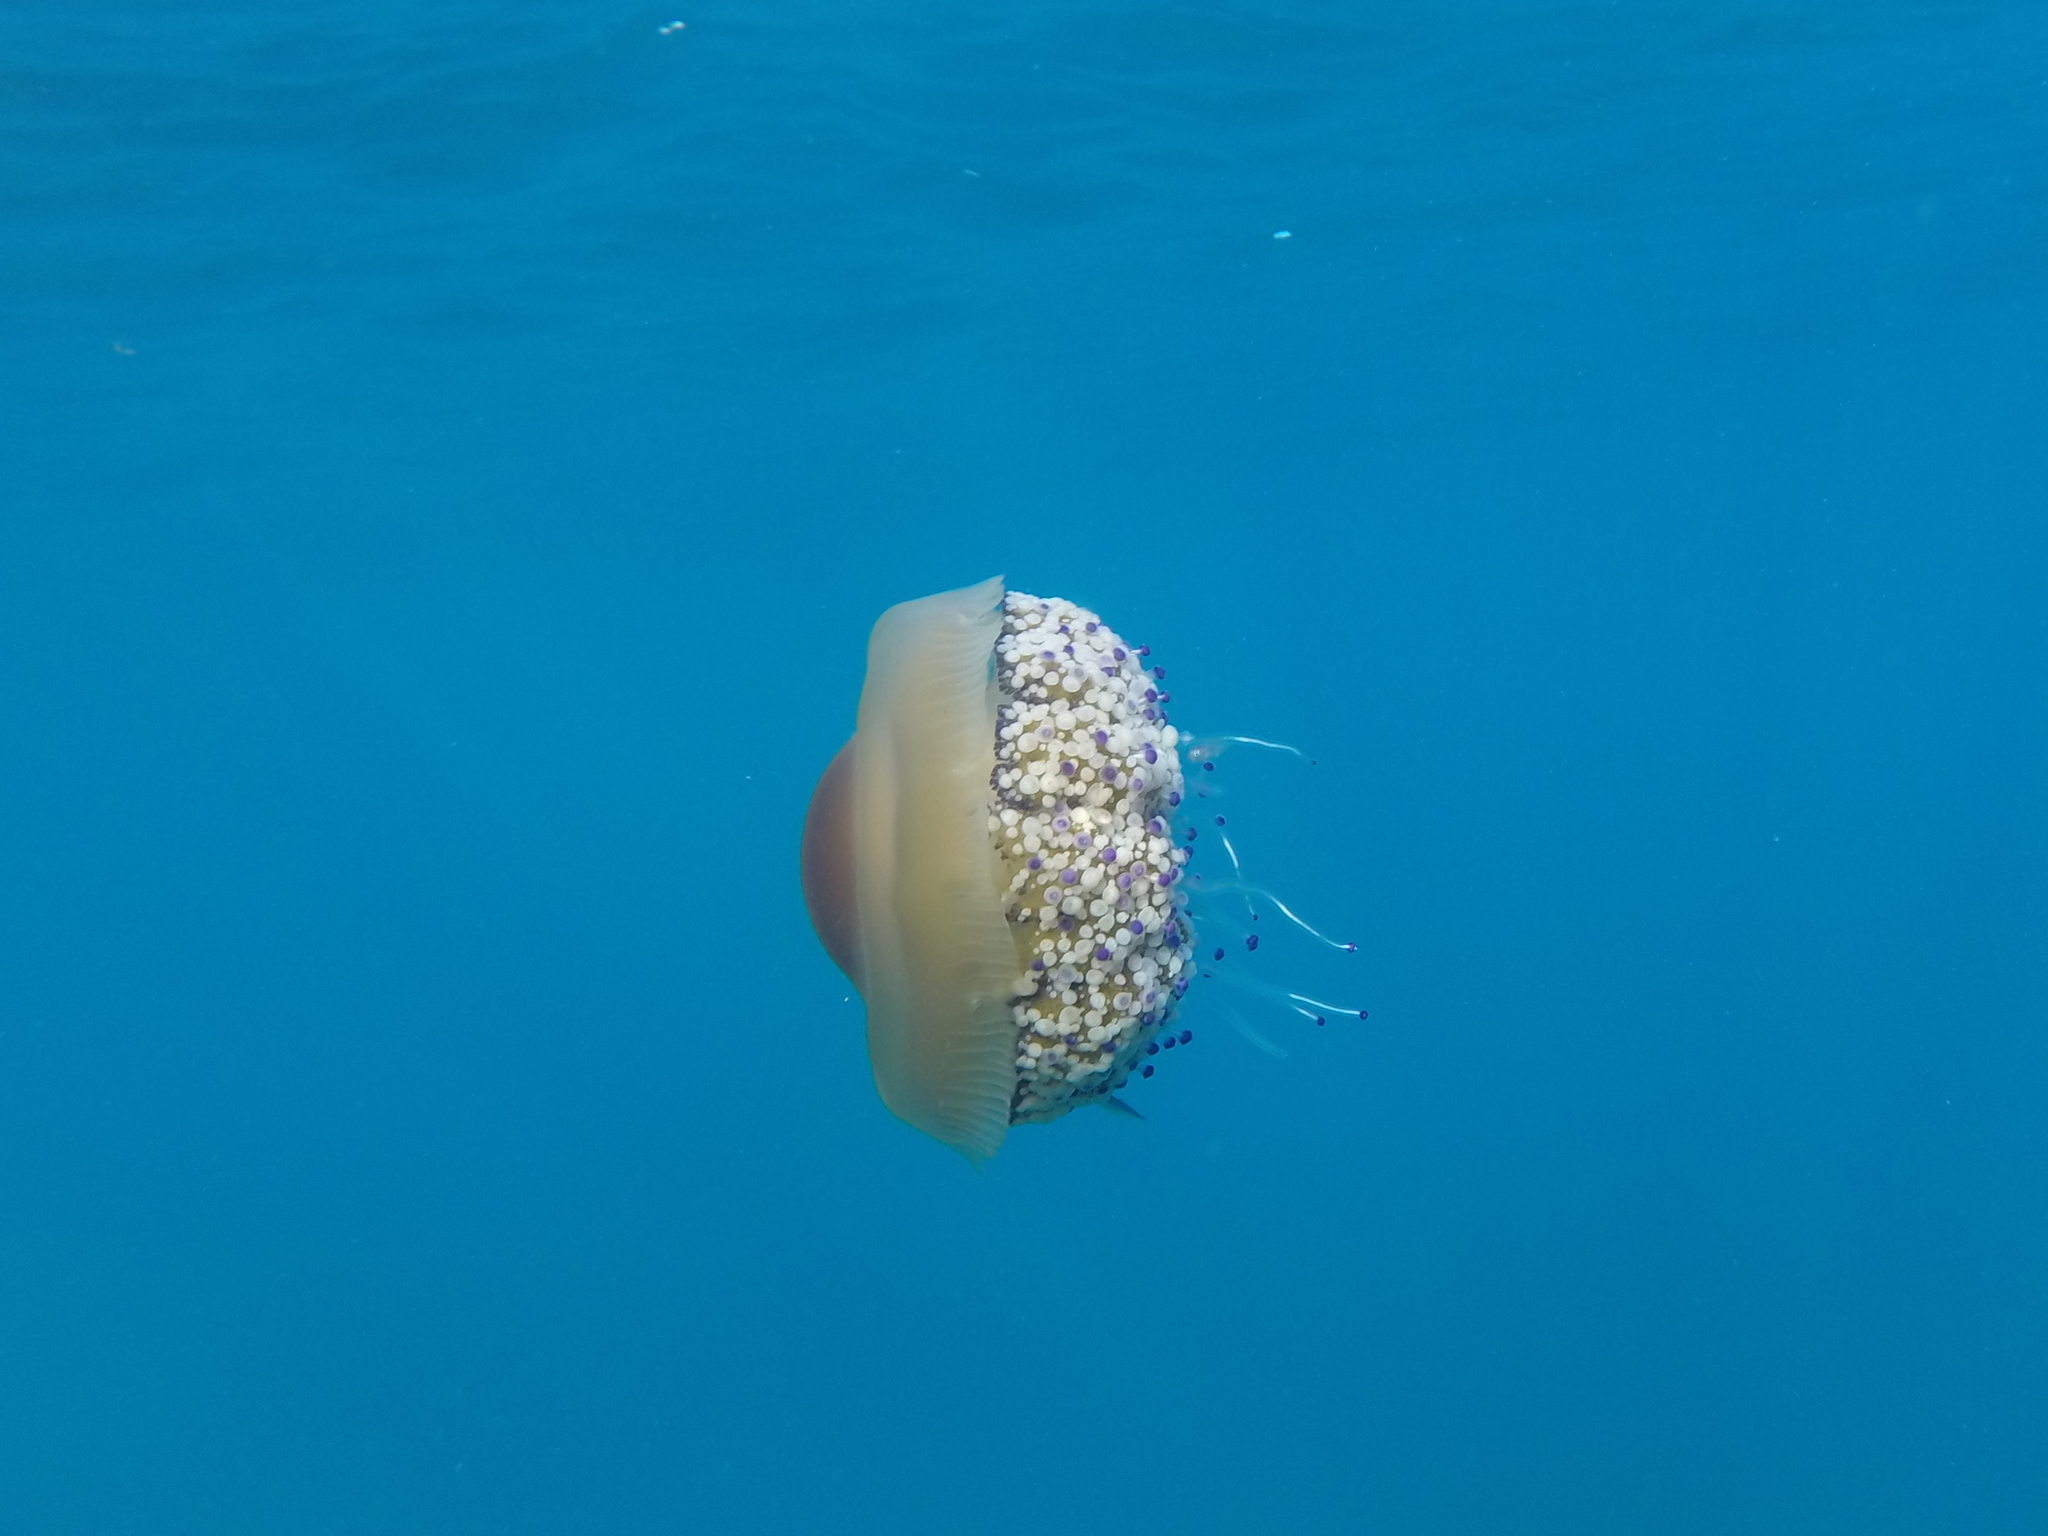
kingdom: Animalia
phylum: Cnidaria
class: Scyphozoa
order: Rhizostomeae
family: Cepheidae
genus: Cotylorhiza
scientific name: Cotylorhiza tuberculata
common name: Mediterranean jelly
